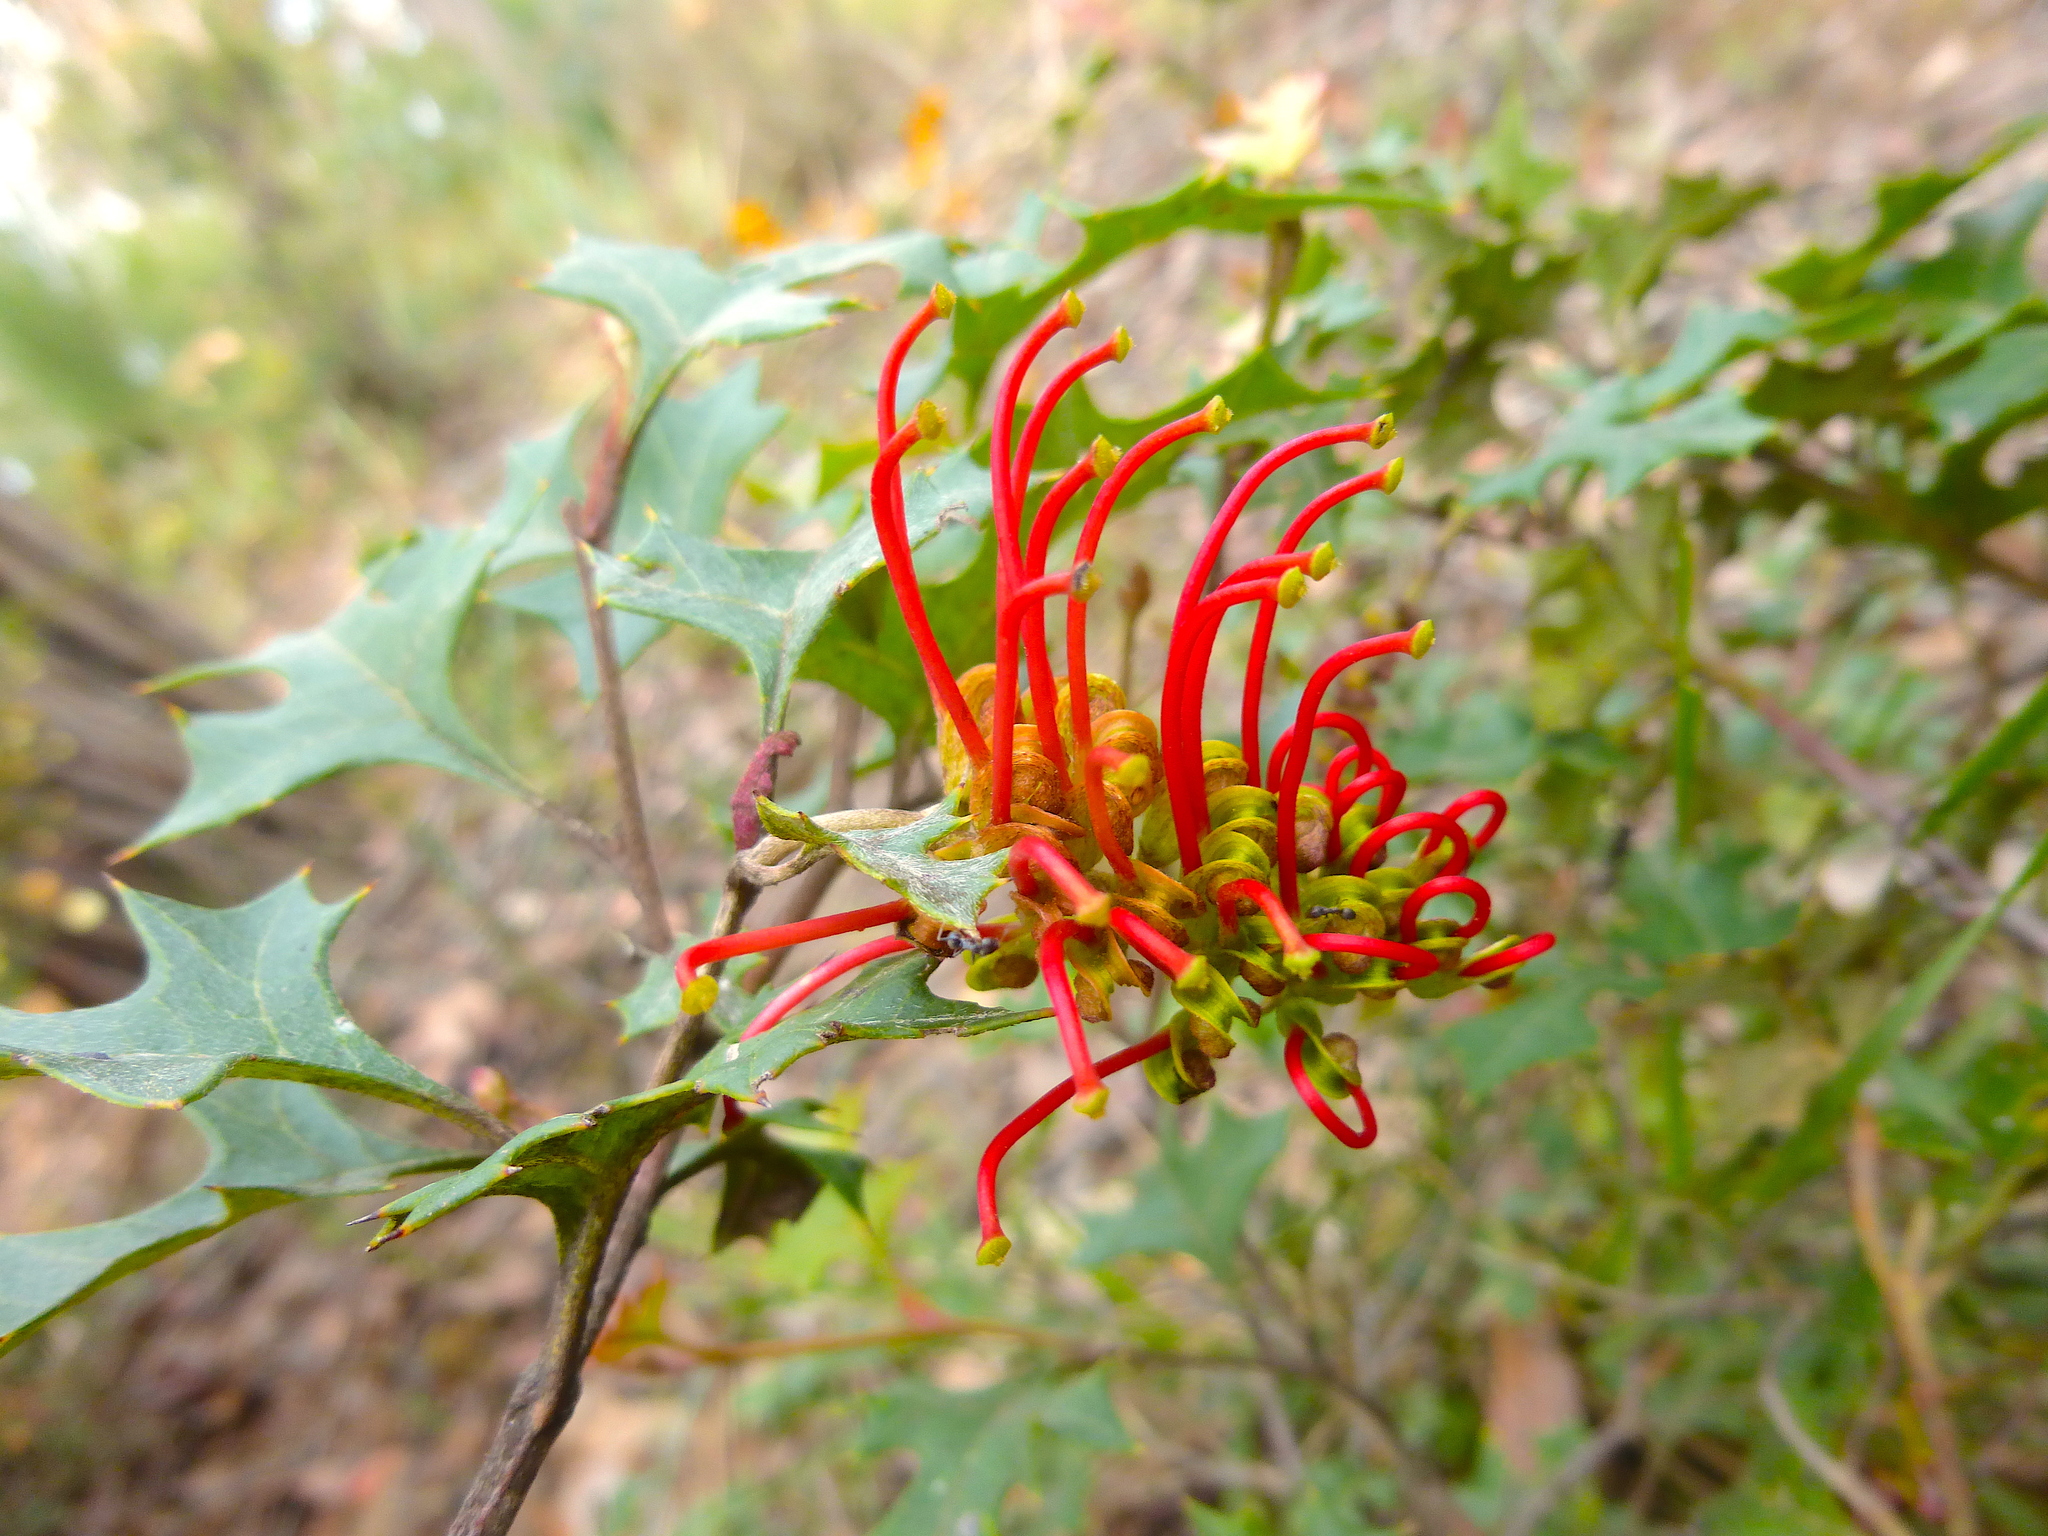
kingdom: Plantae
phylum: Tracheophyta
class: Magnoliopsida
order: Proteales
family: Proteaceae
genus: Grevillea
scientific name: Grevillea steiglitziana
